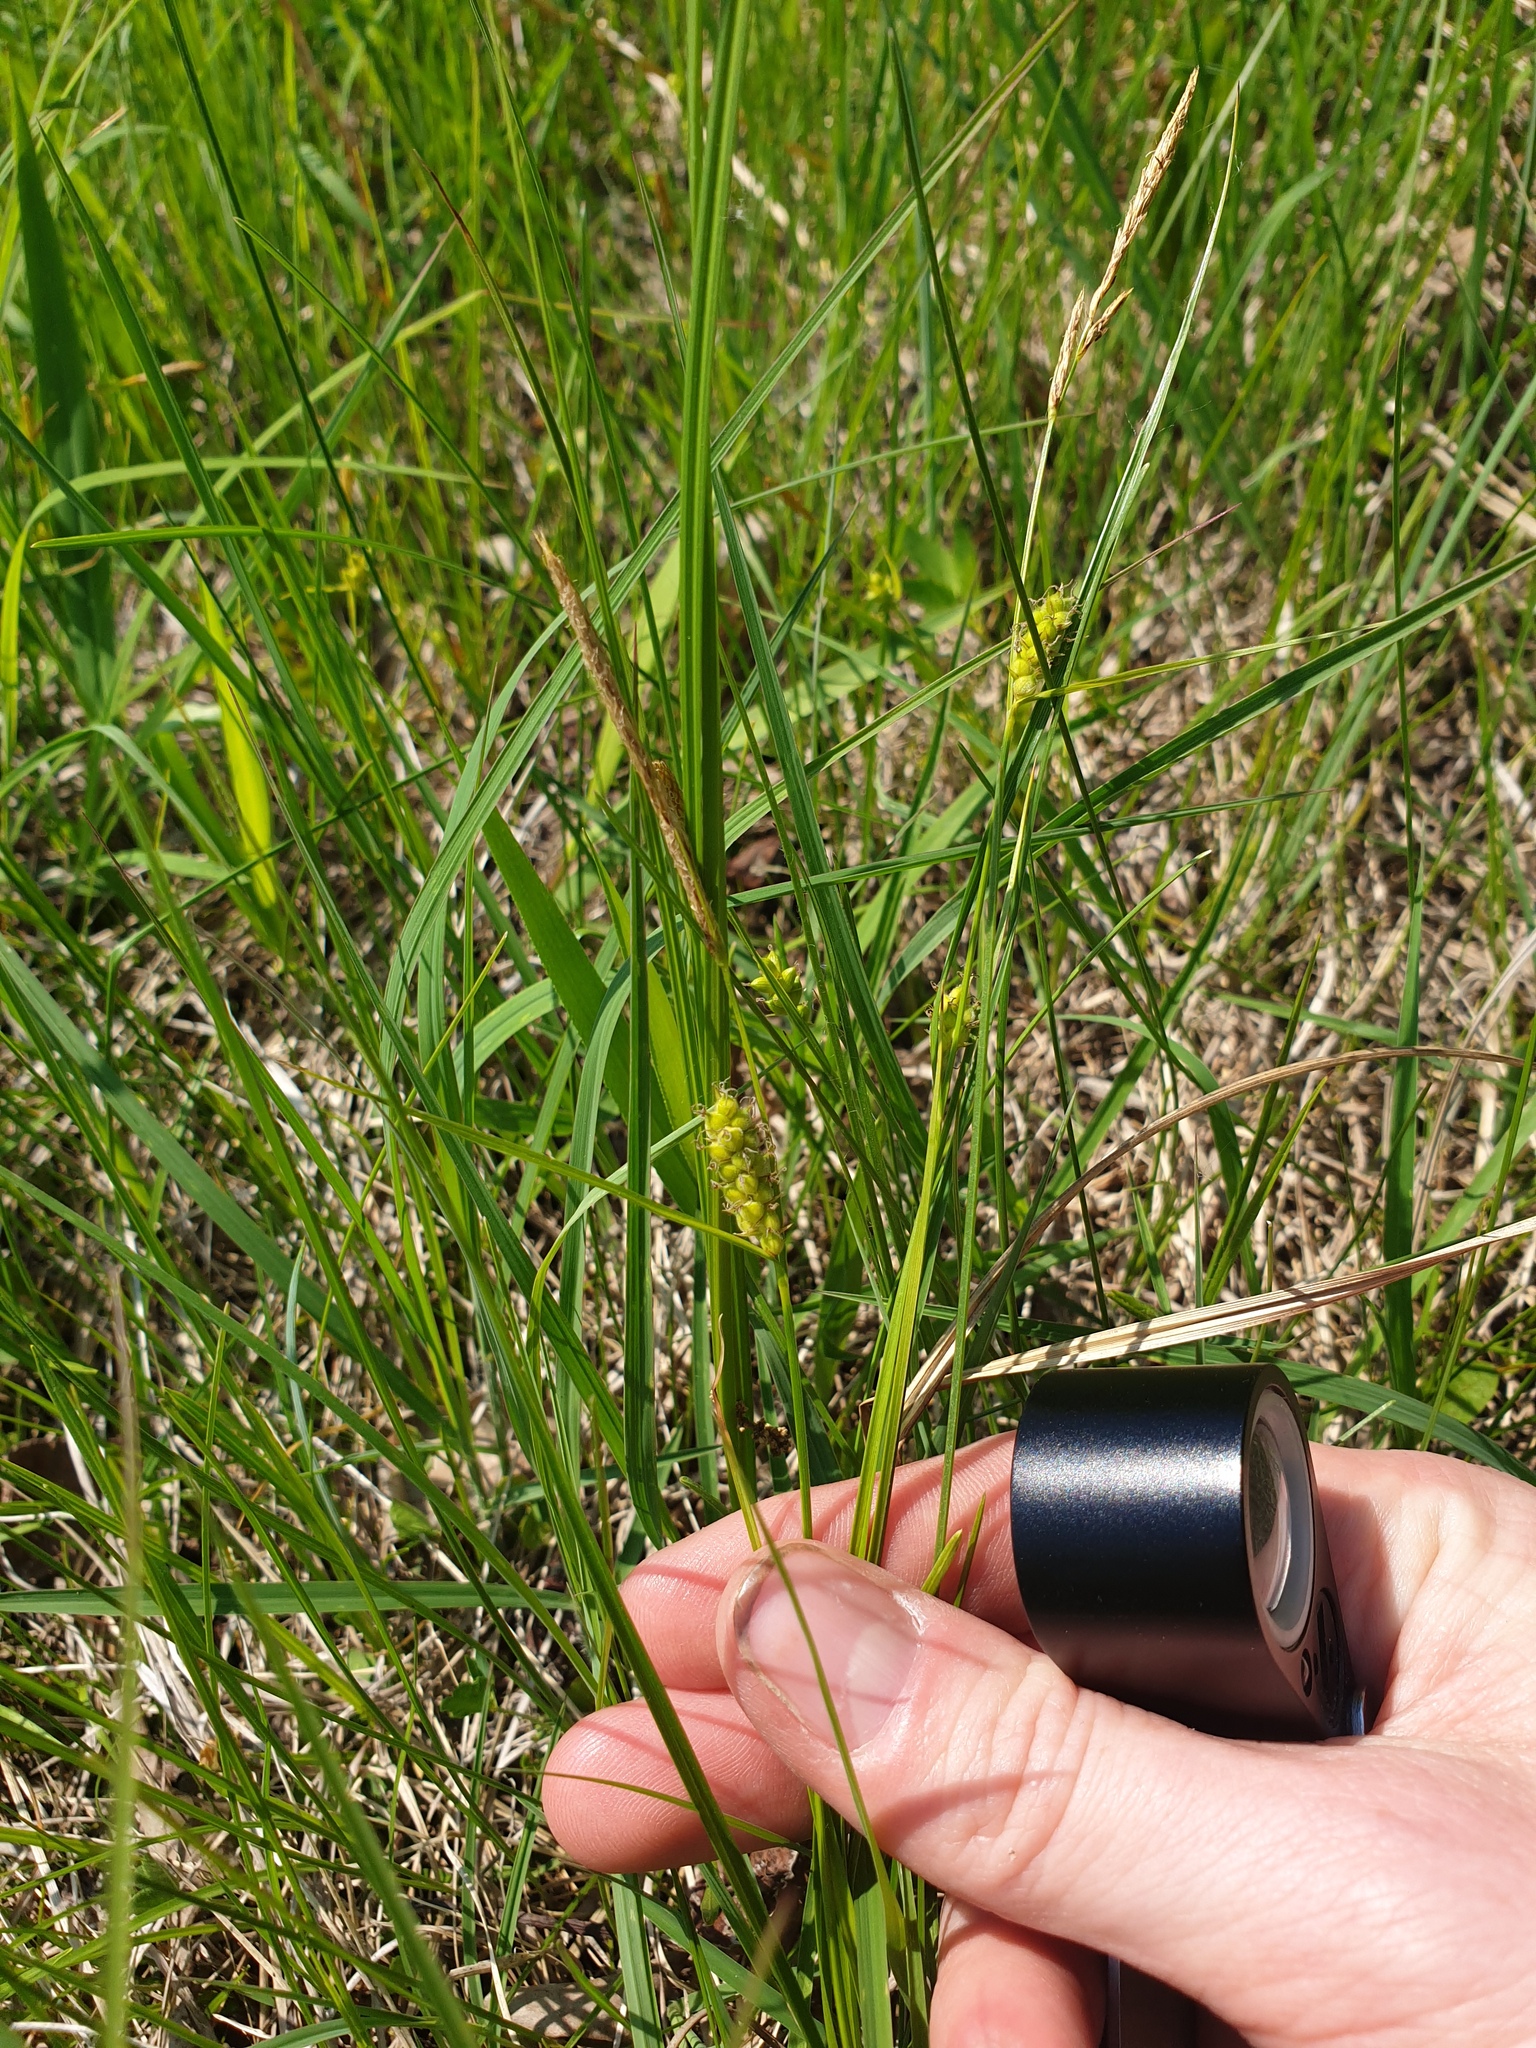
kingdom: Plantae
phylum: Tracheophyta
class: Liliopsida
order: Poales
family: Cyperaceae
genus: Carex
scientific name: Carex pellita
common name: Woolly sedge
